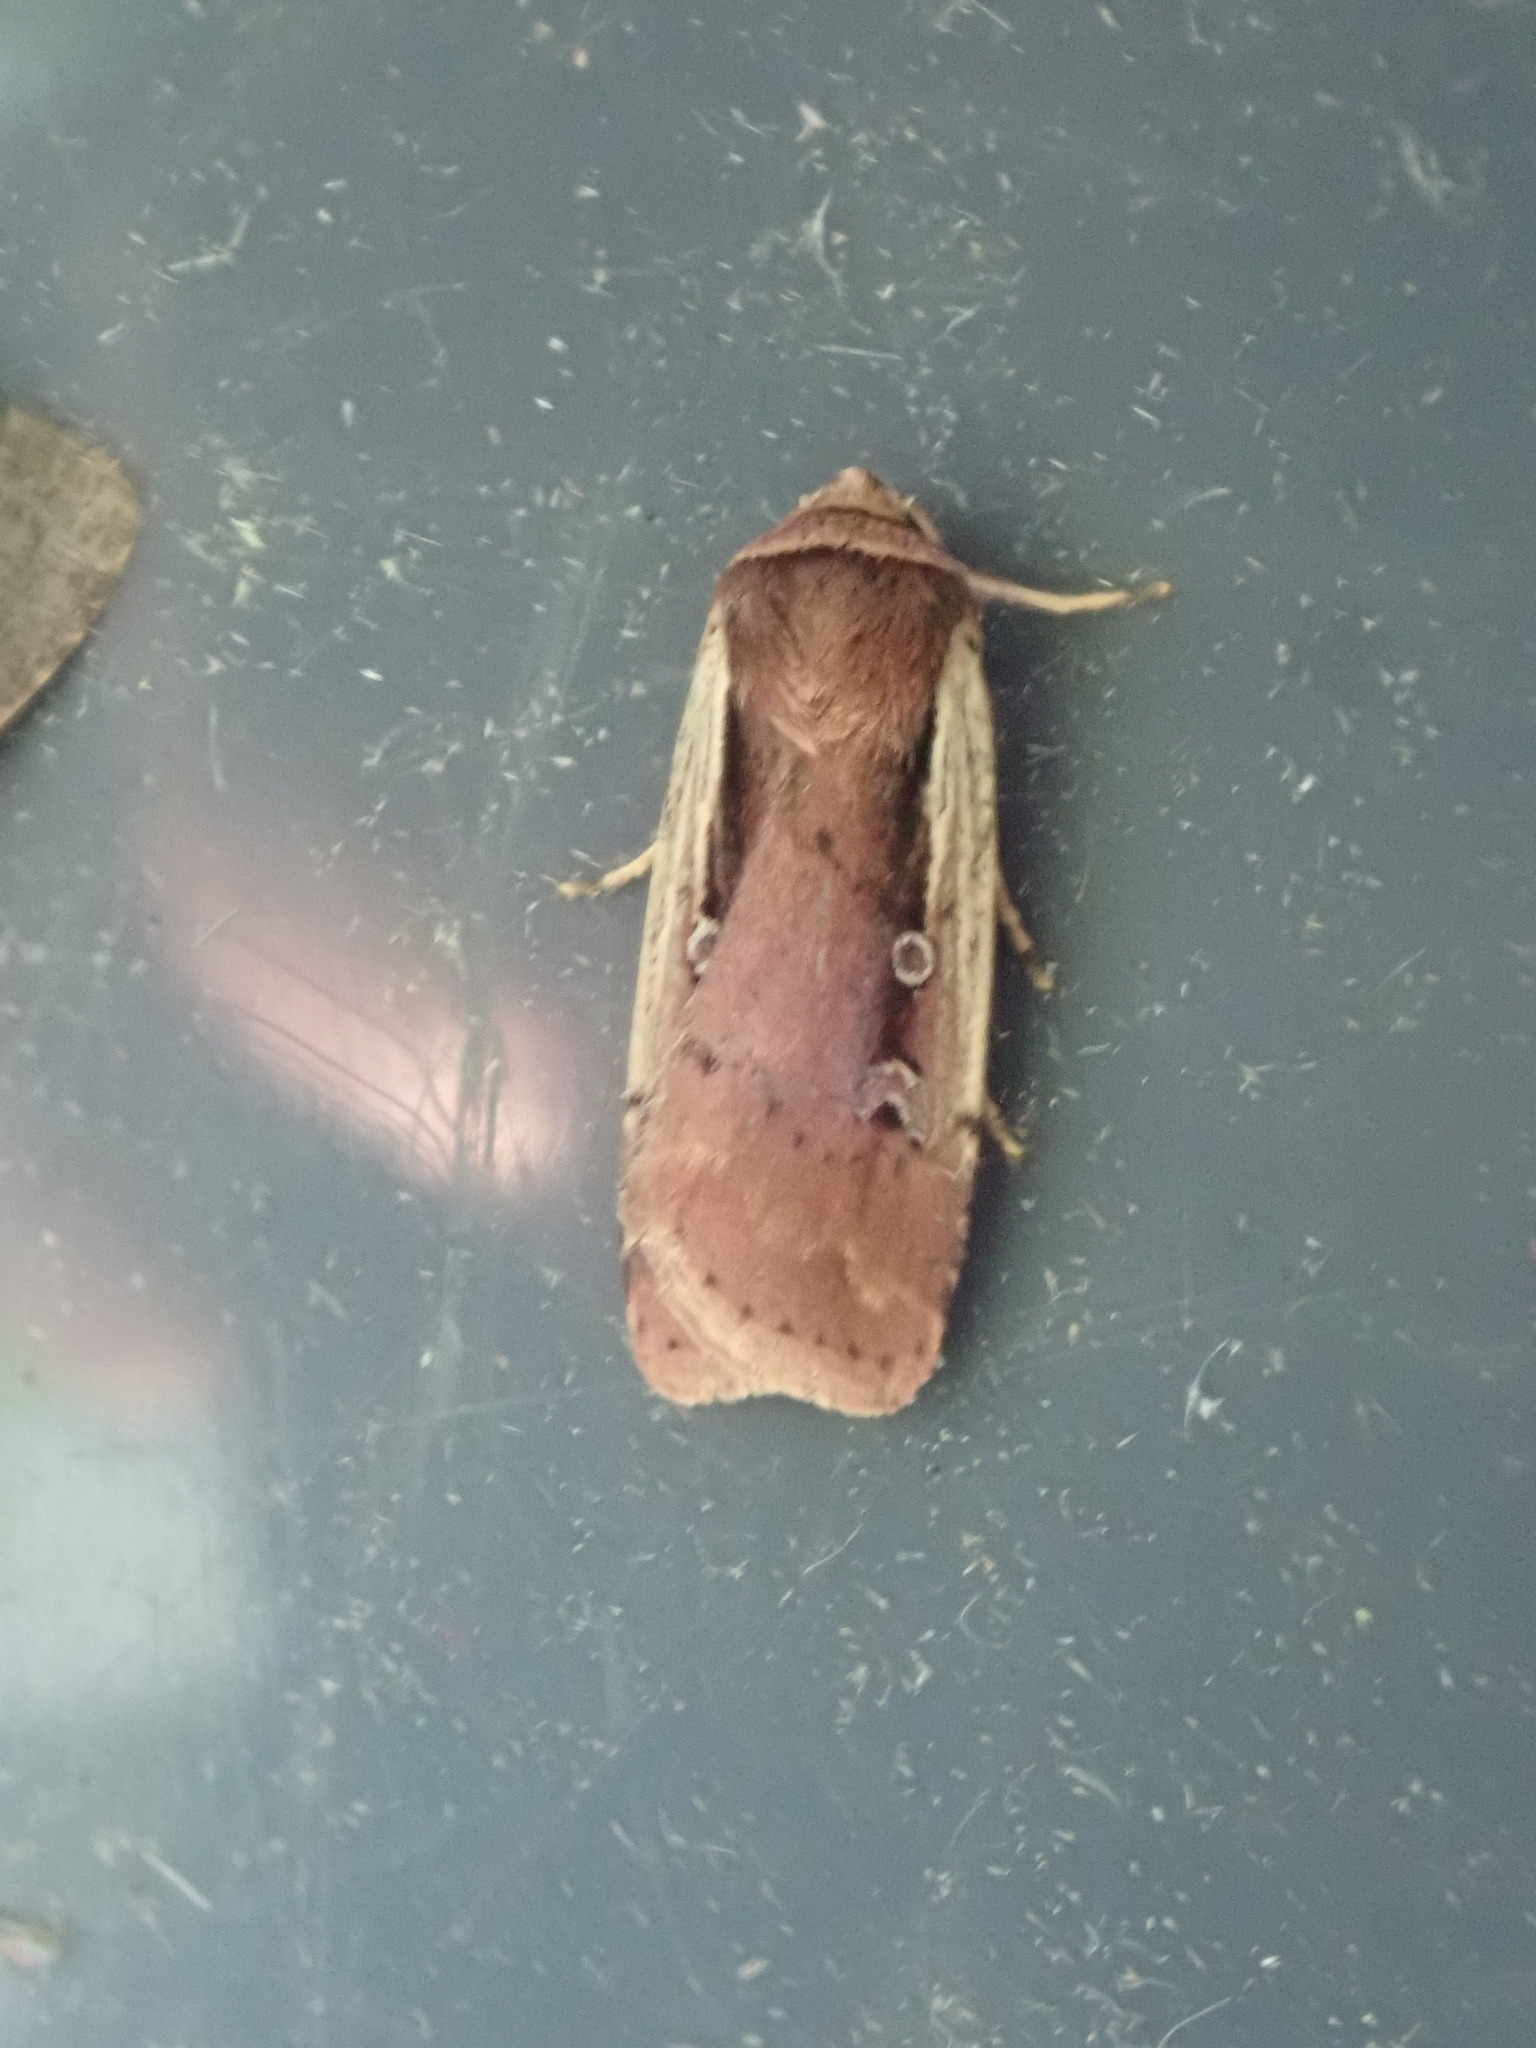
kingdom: Animalia
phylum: Arthropoda
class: Insecta
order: Lepidoptera
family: Noctuidae
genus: Ochropleura
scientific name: Ochropleura implecta
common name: Flame-shouldered dart
